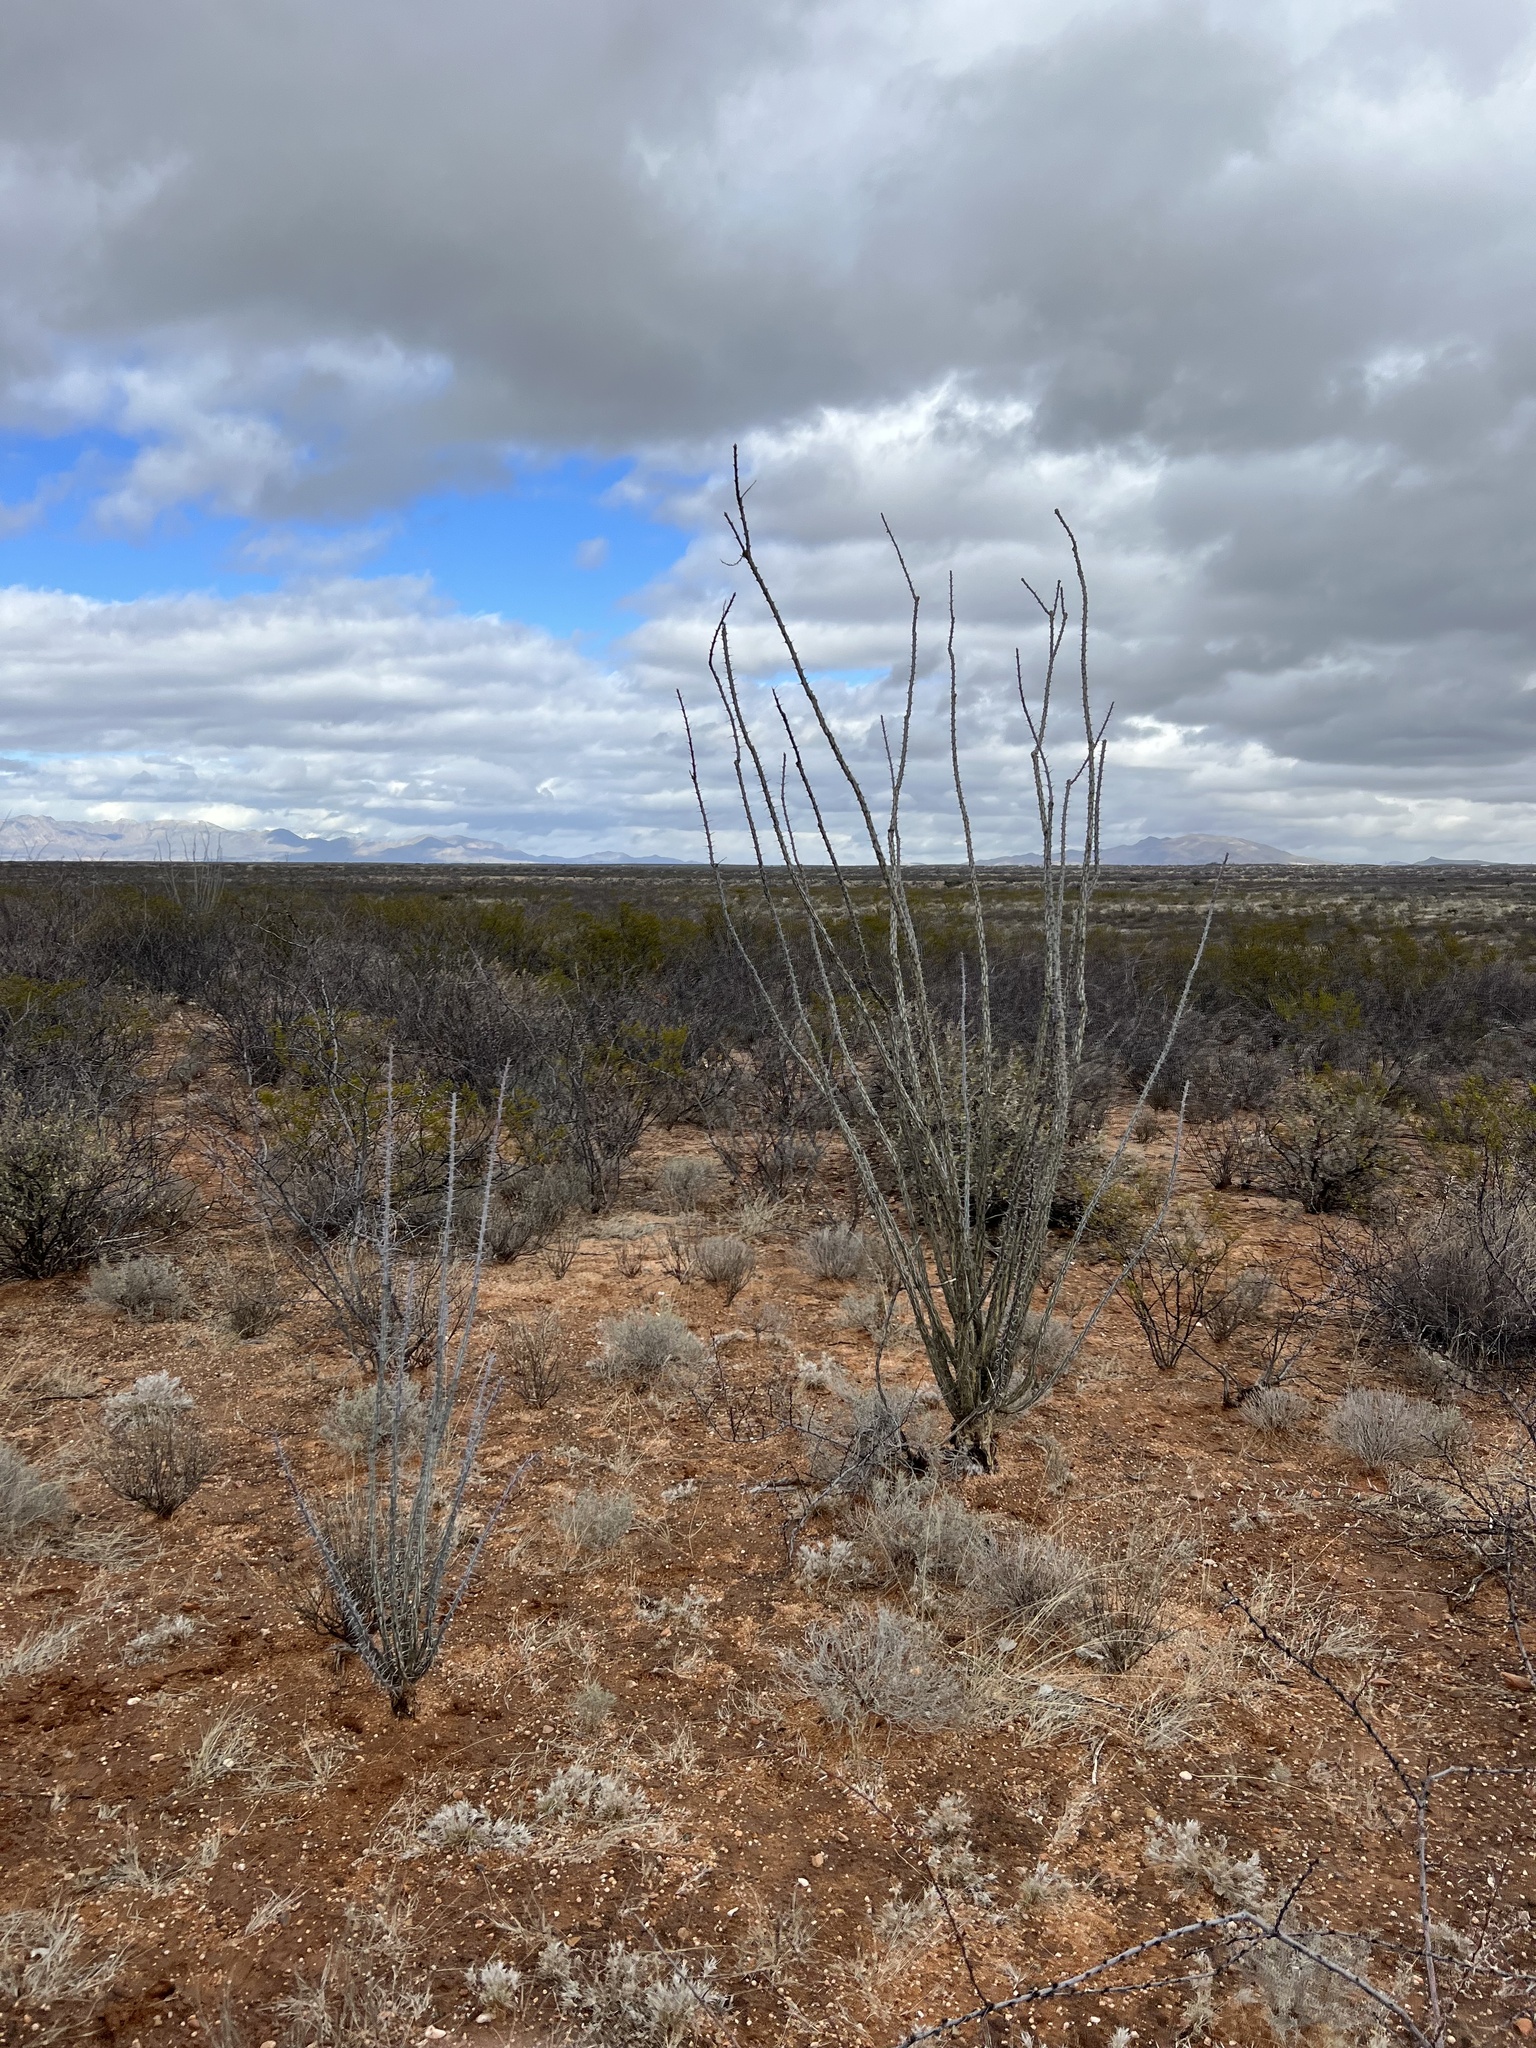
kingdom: Plantae
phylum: Tracheophyta
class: Magnoliopsida
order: Ericales
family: Fouquieriaceae
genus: Fouquieria
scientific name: Fouquieria splendens
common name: Vine-cactus
